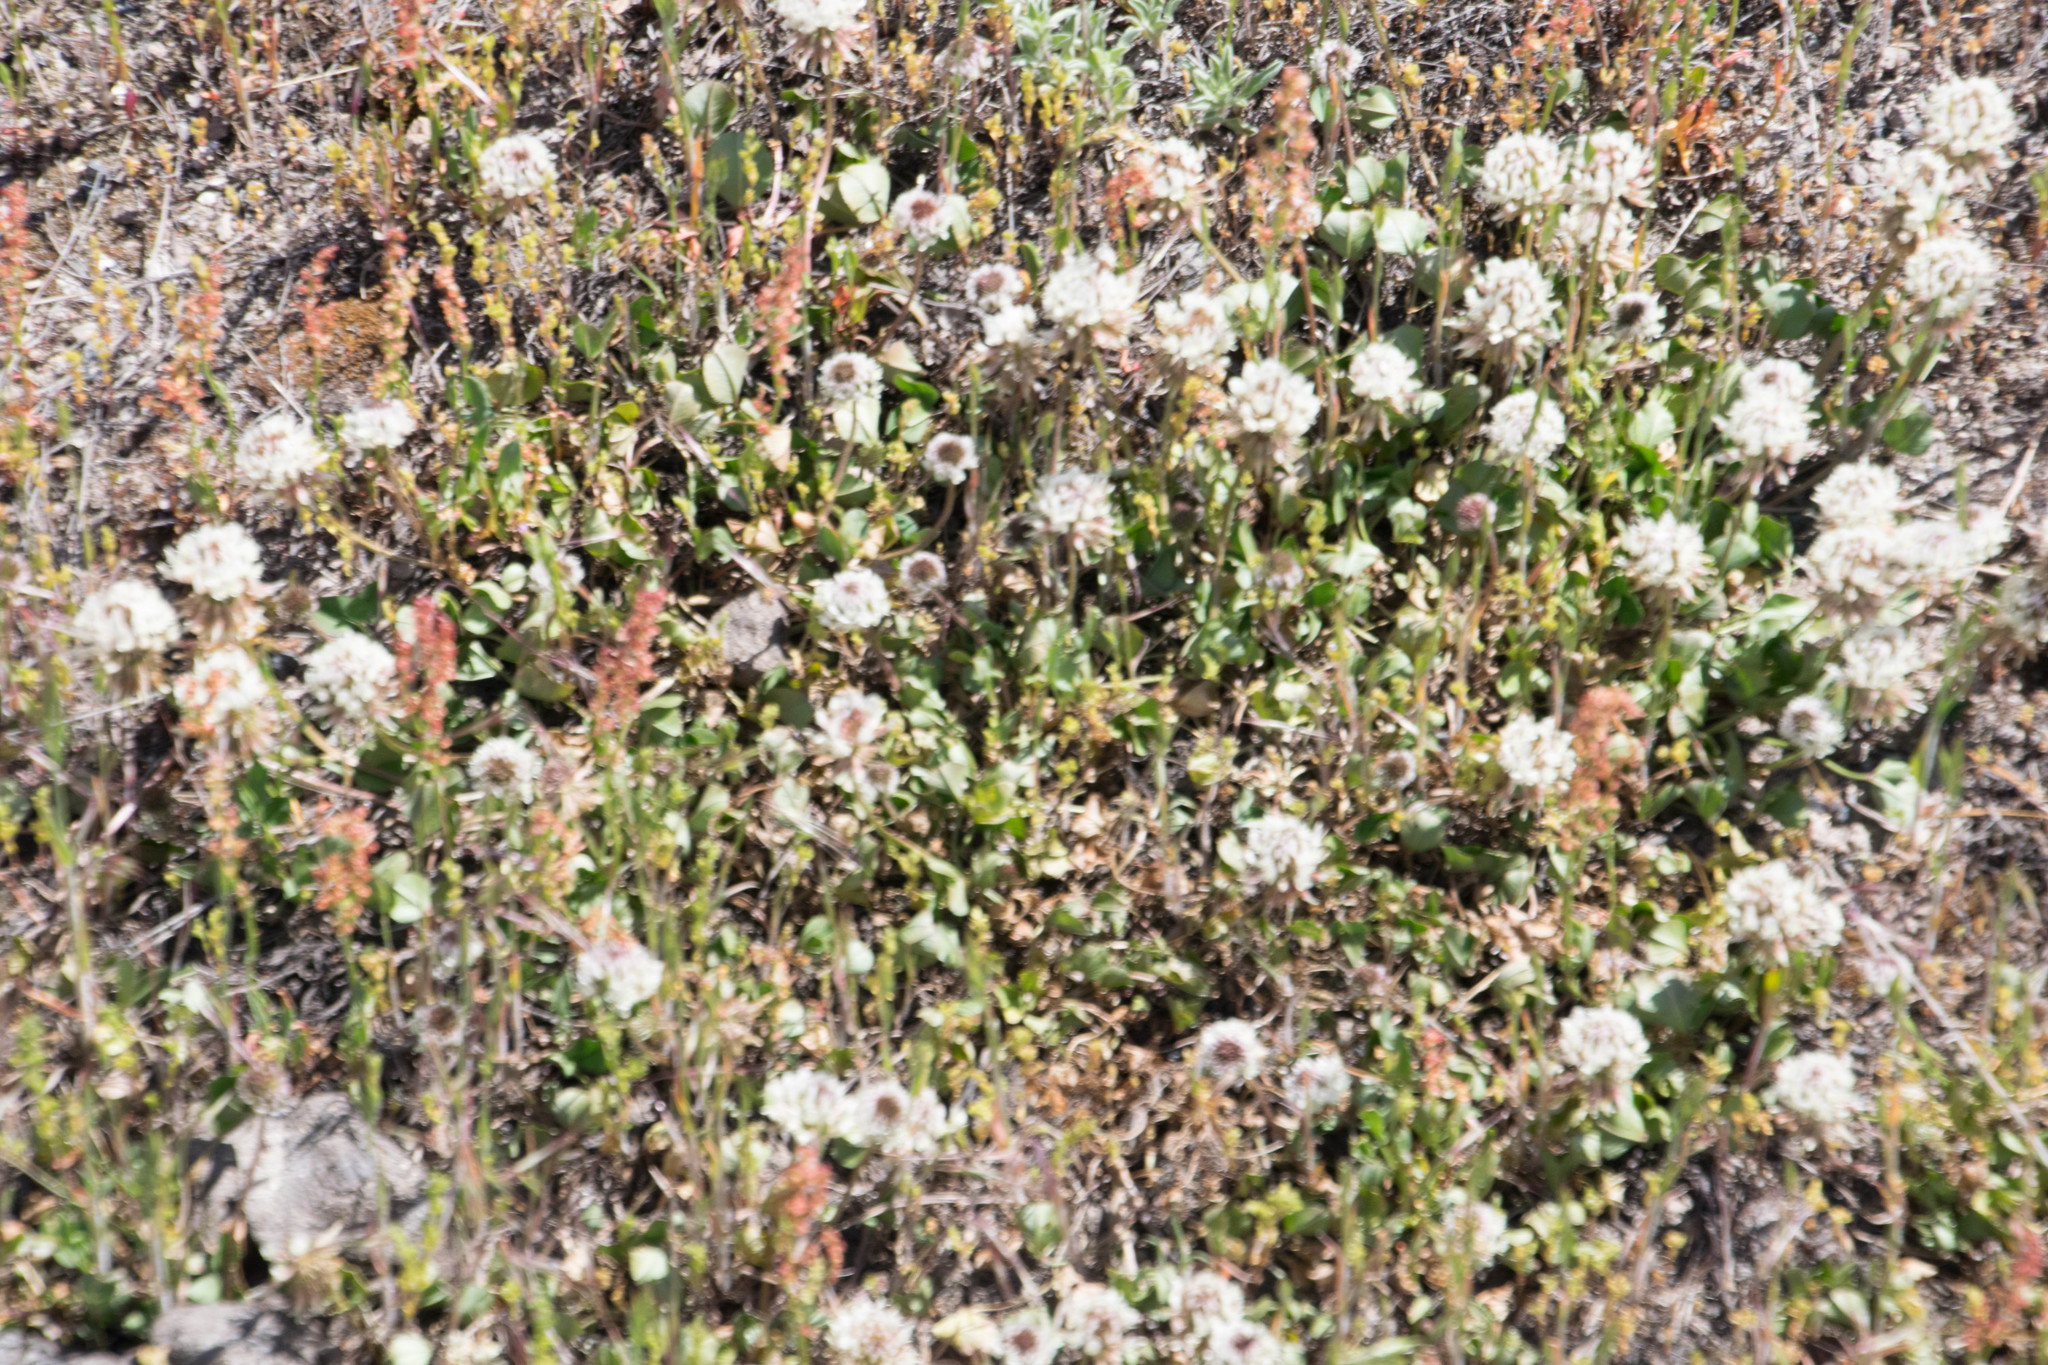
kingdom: Plantae
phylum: Tracheophyta
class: Magnoliopsida
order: Fabales
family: Fabaceae
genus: Trifolium
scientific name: Trifolium repens
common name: White clover
